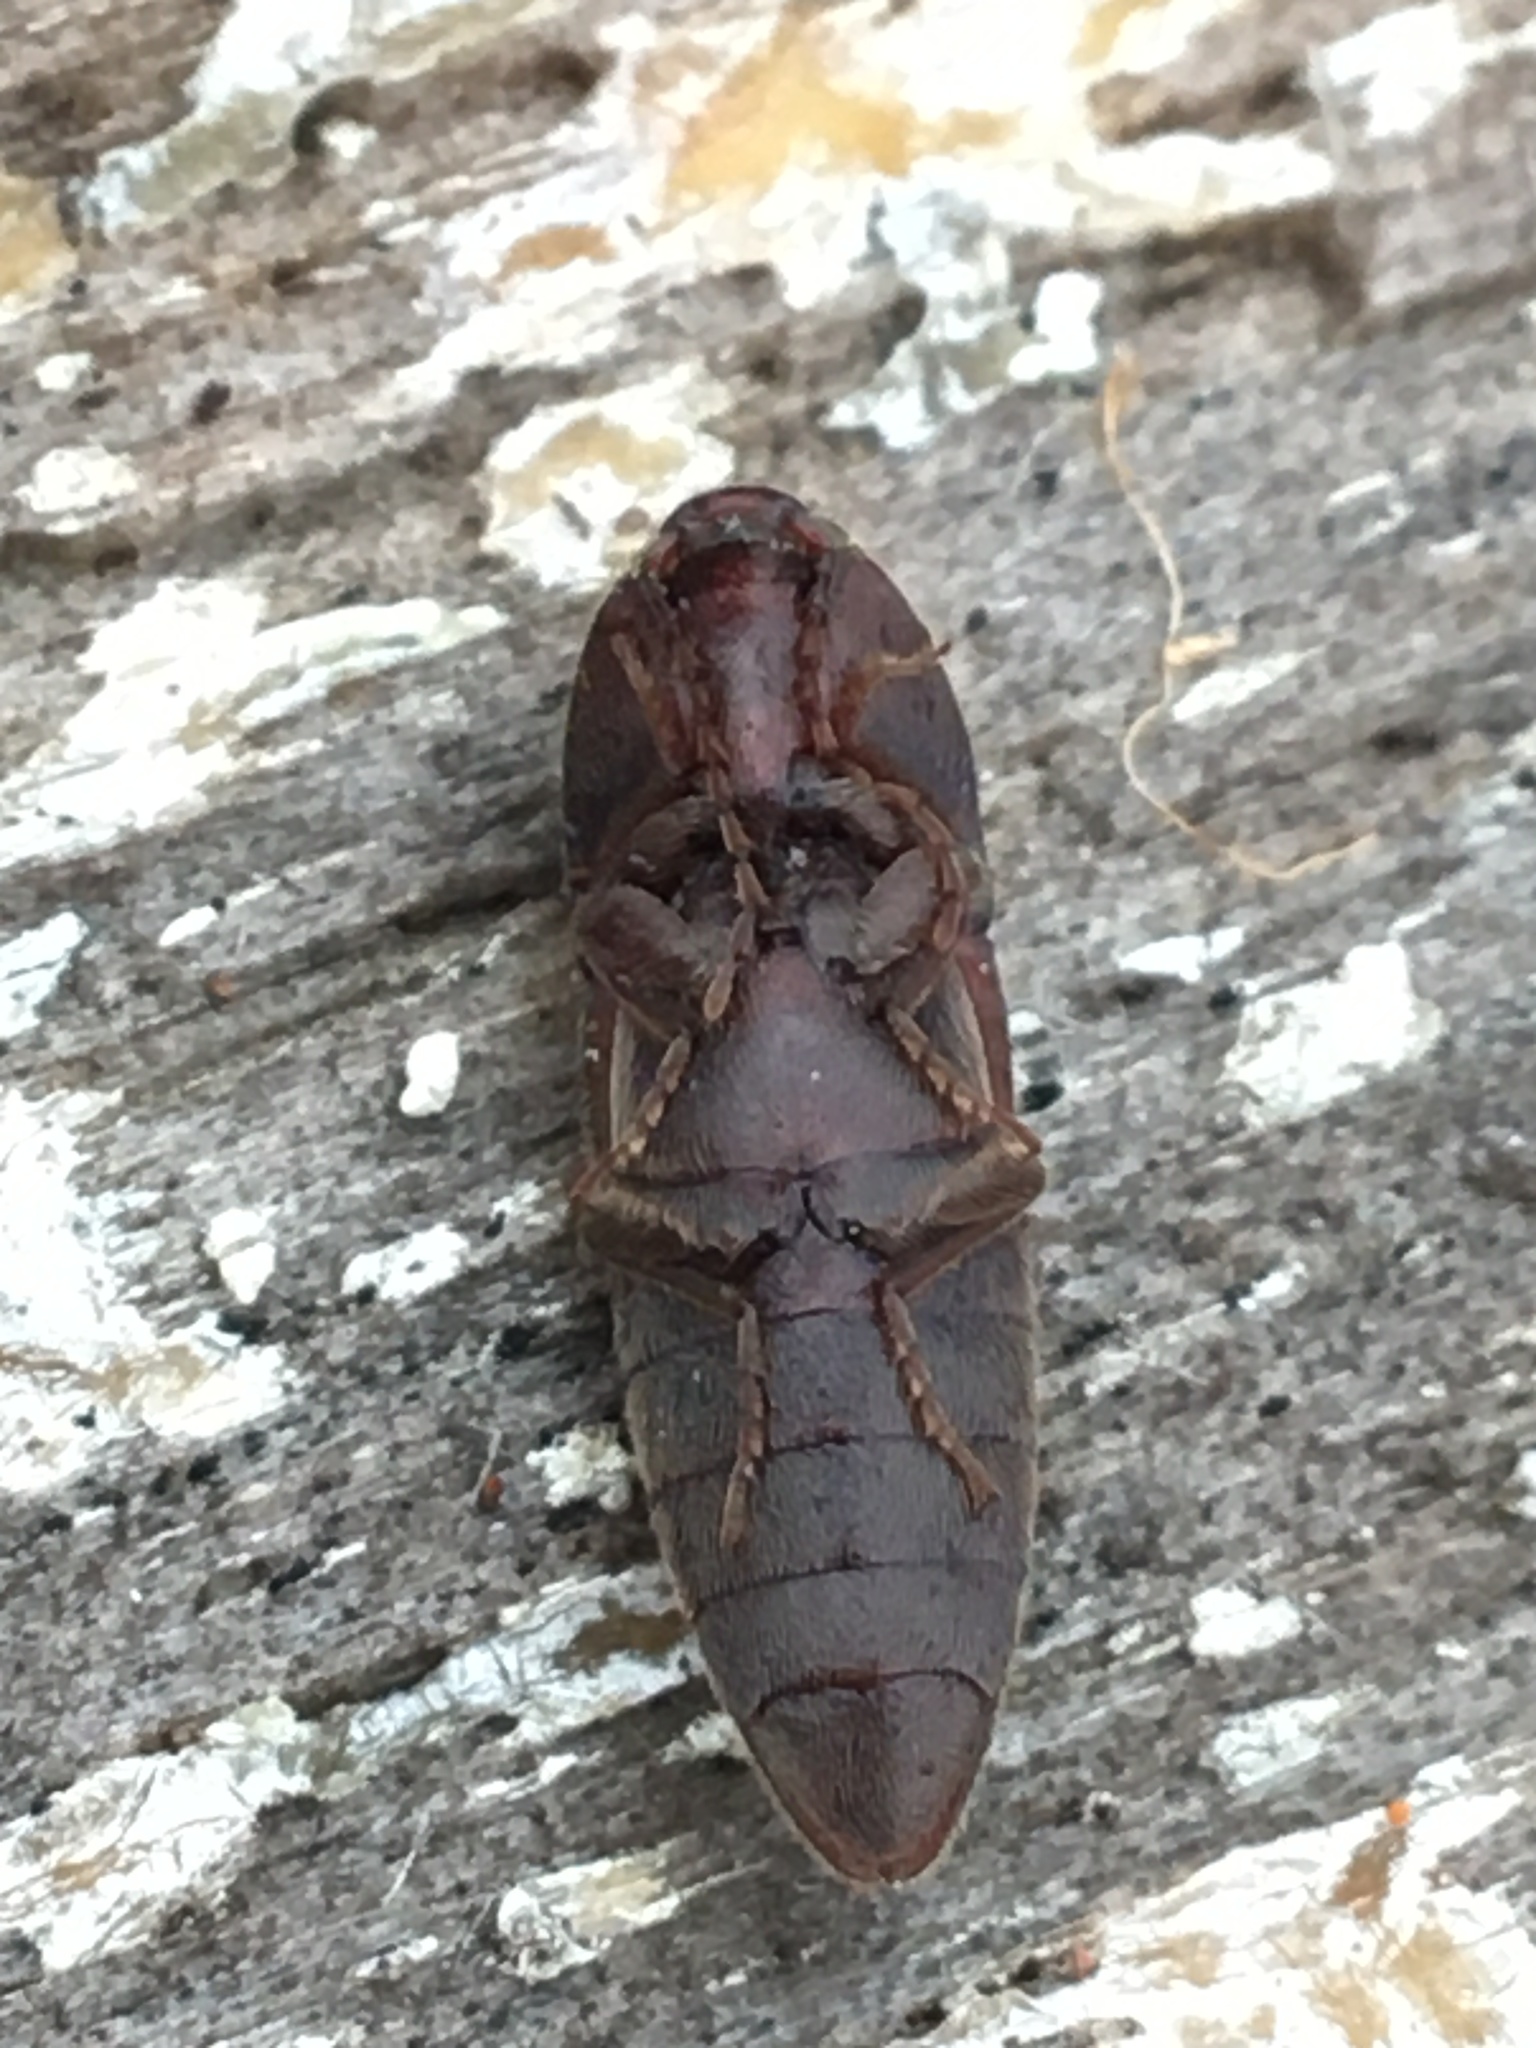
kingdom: Animalia
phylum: Arthropoda
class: Insecta
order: Coleoptera
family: Elateridae
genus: Melanotus
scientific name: Melanotus
